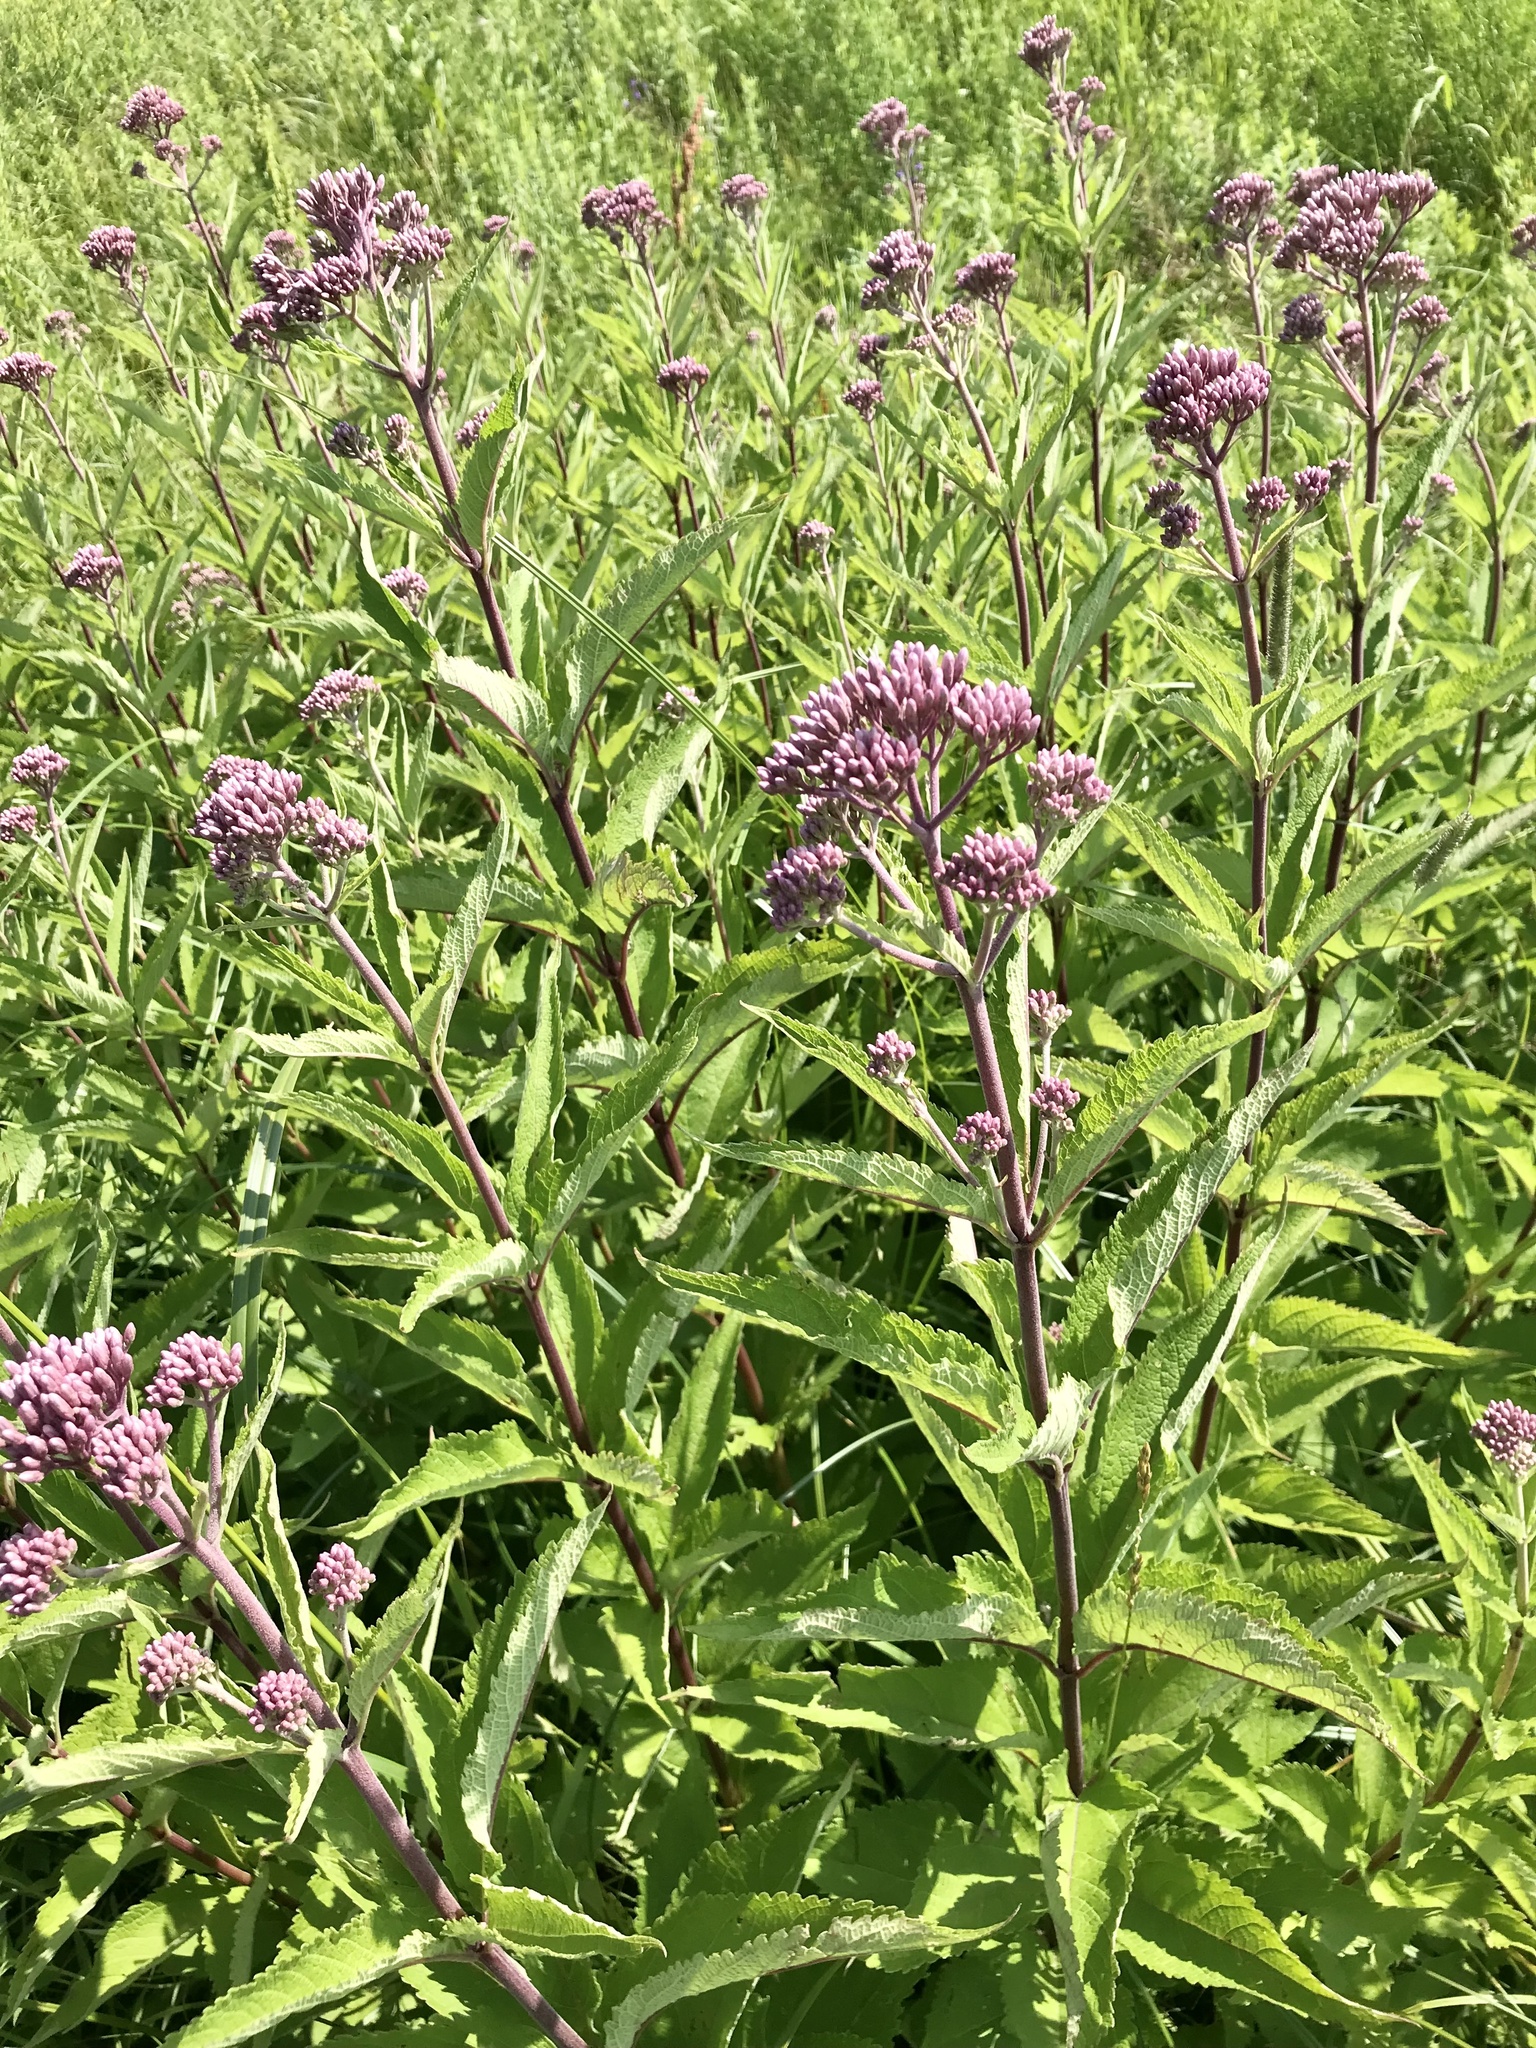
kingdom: Plantae
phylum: Tracheophyta
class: Magnoliopsida
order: Asterales
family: Asteraceae
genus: Eutrochium
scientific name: Eutrochium maculatum
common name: Spotted joe pye weed
